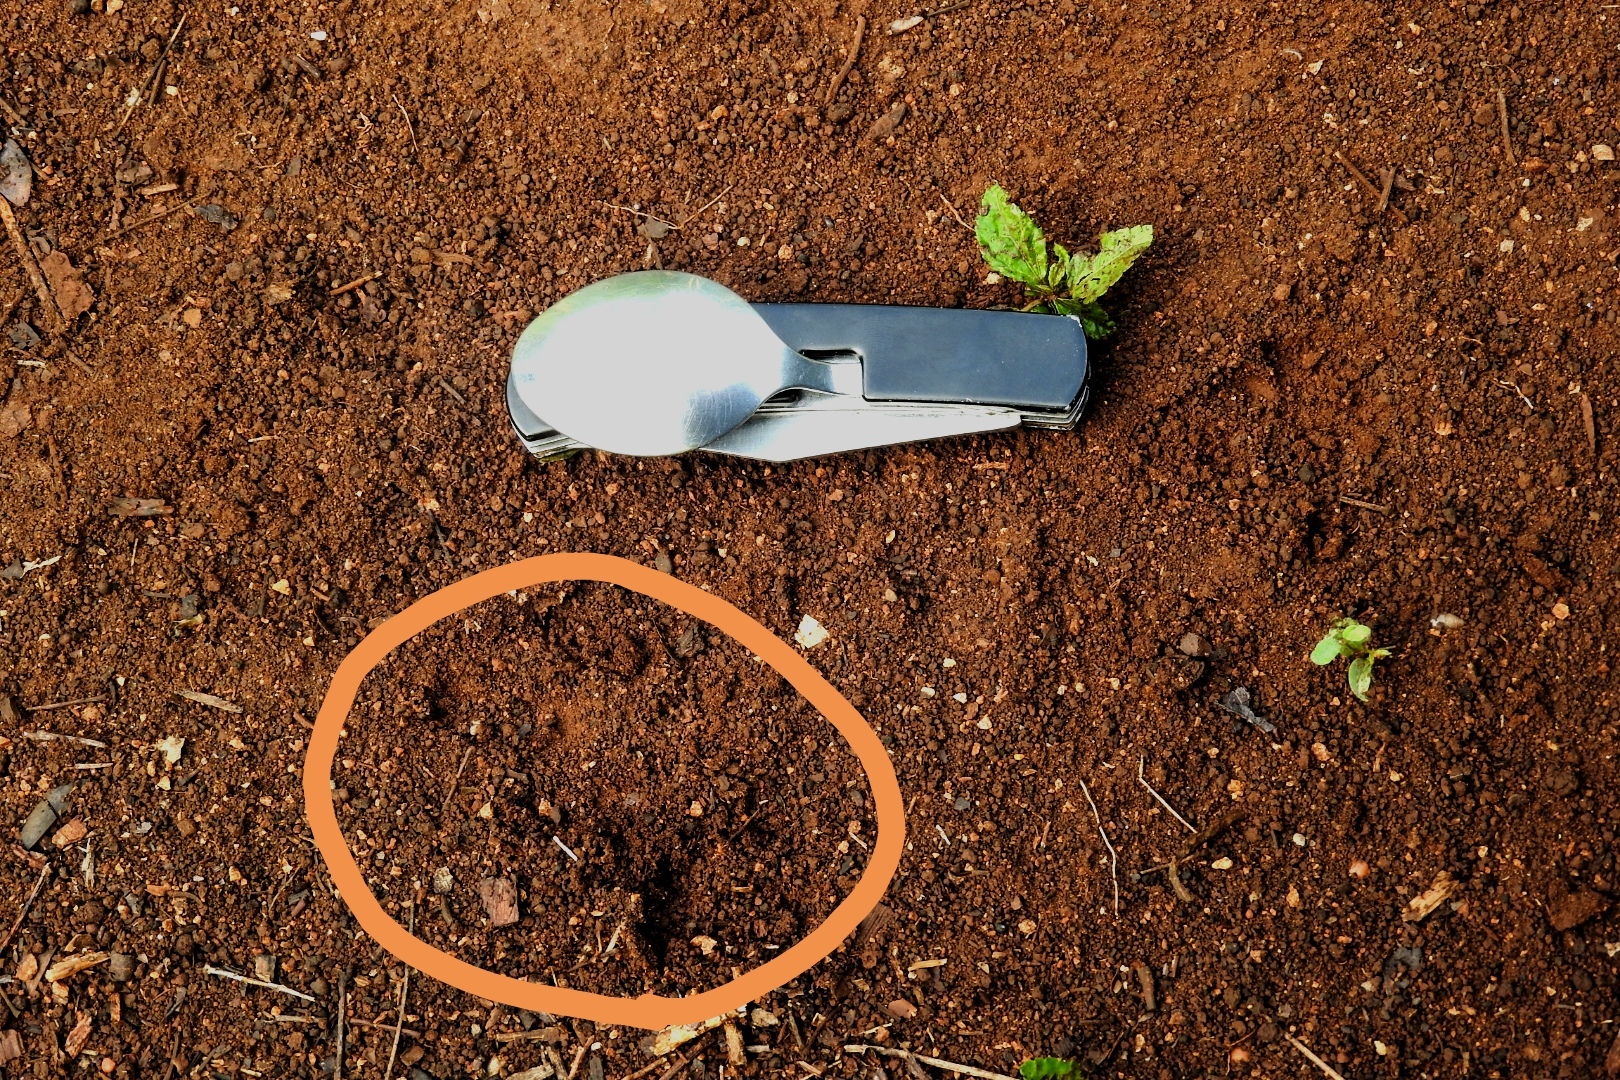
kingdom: Animalia
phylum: Chordata
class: Mammalia
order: Cingulata
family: Dasypodidae
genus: Dasypus
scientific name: Dasypus novemcinctus
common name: Nine-banded armadillo
